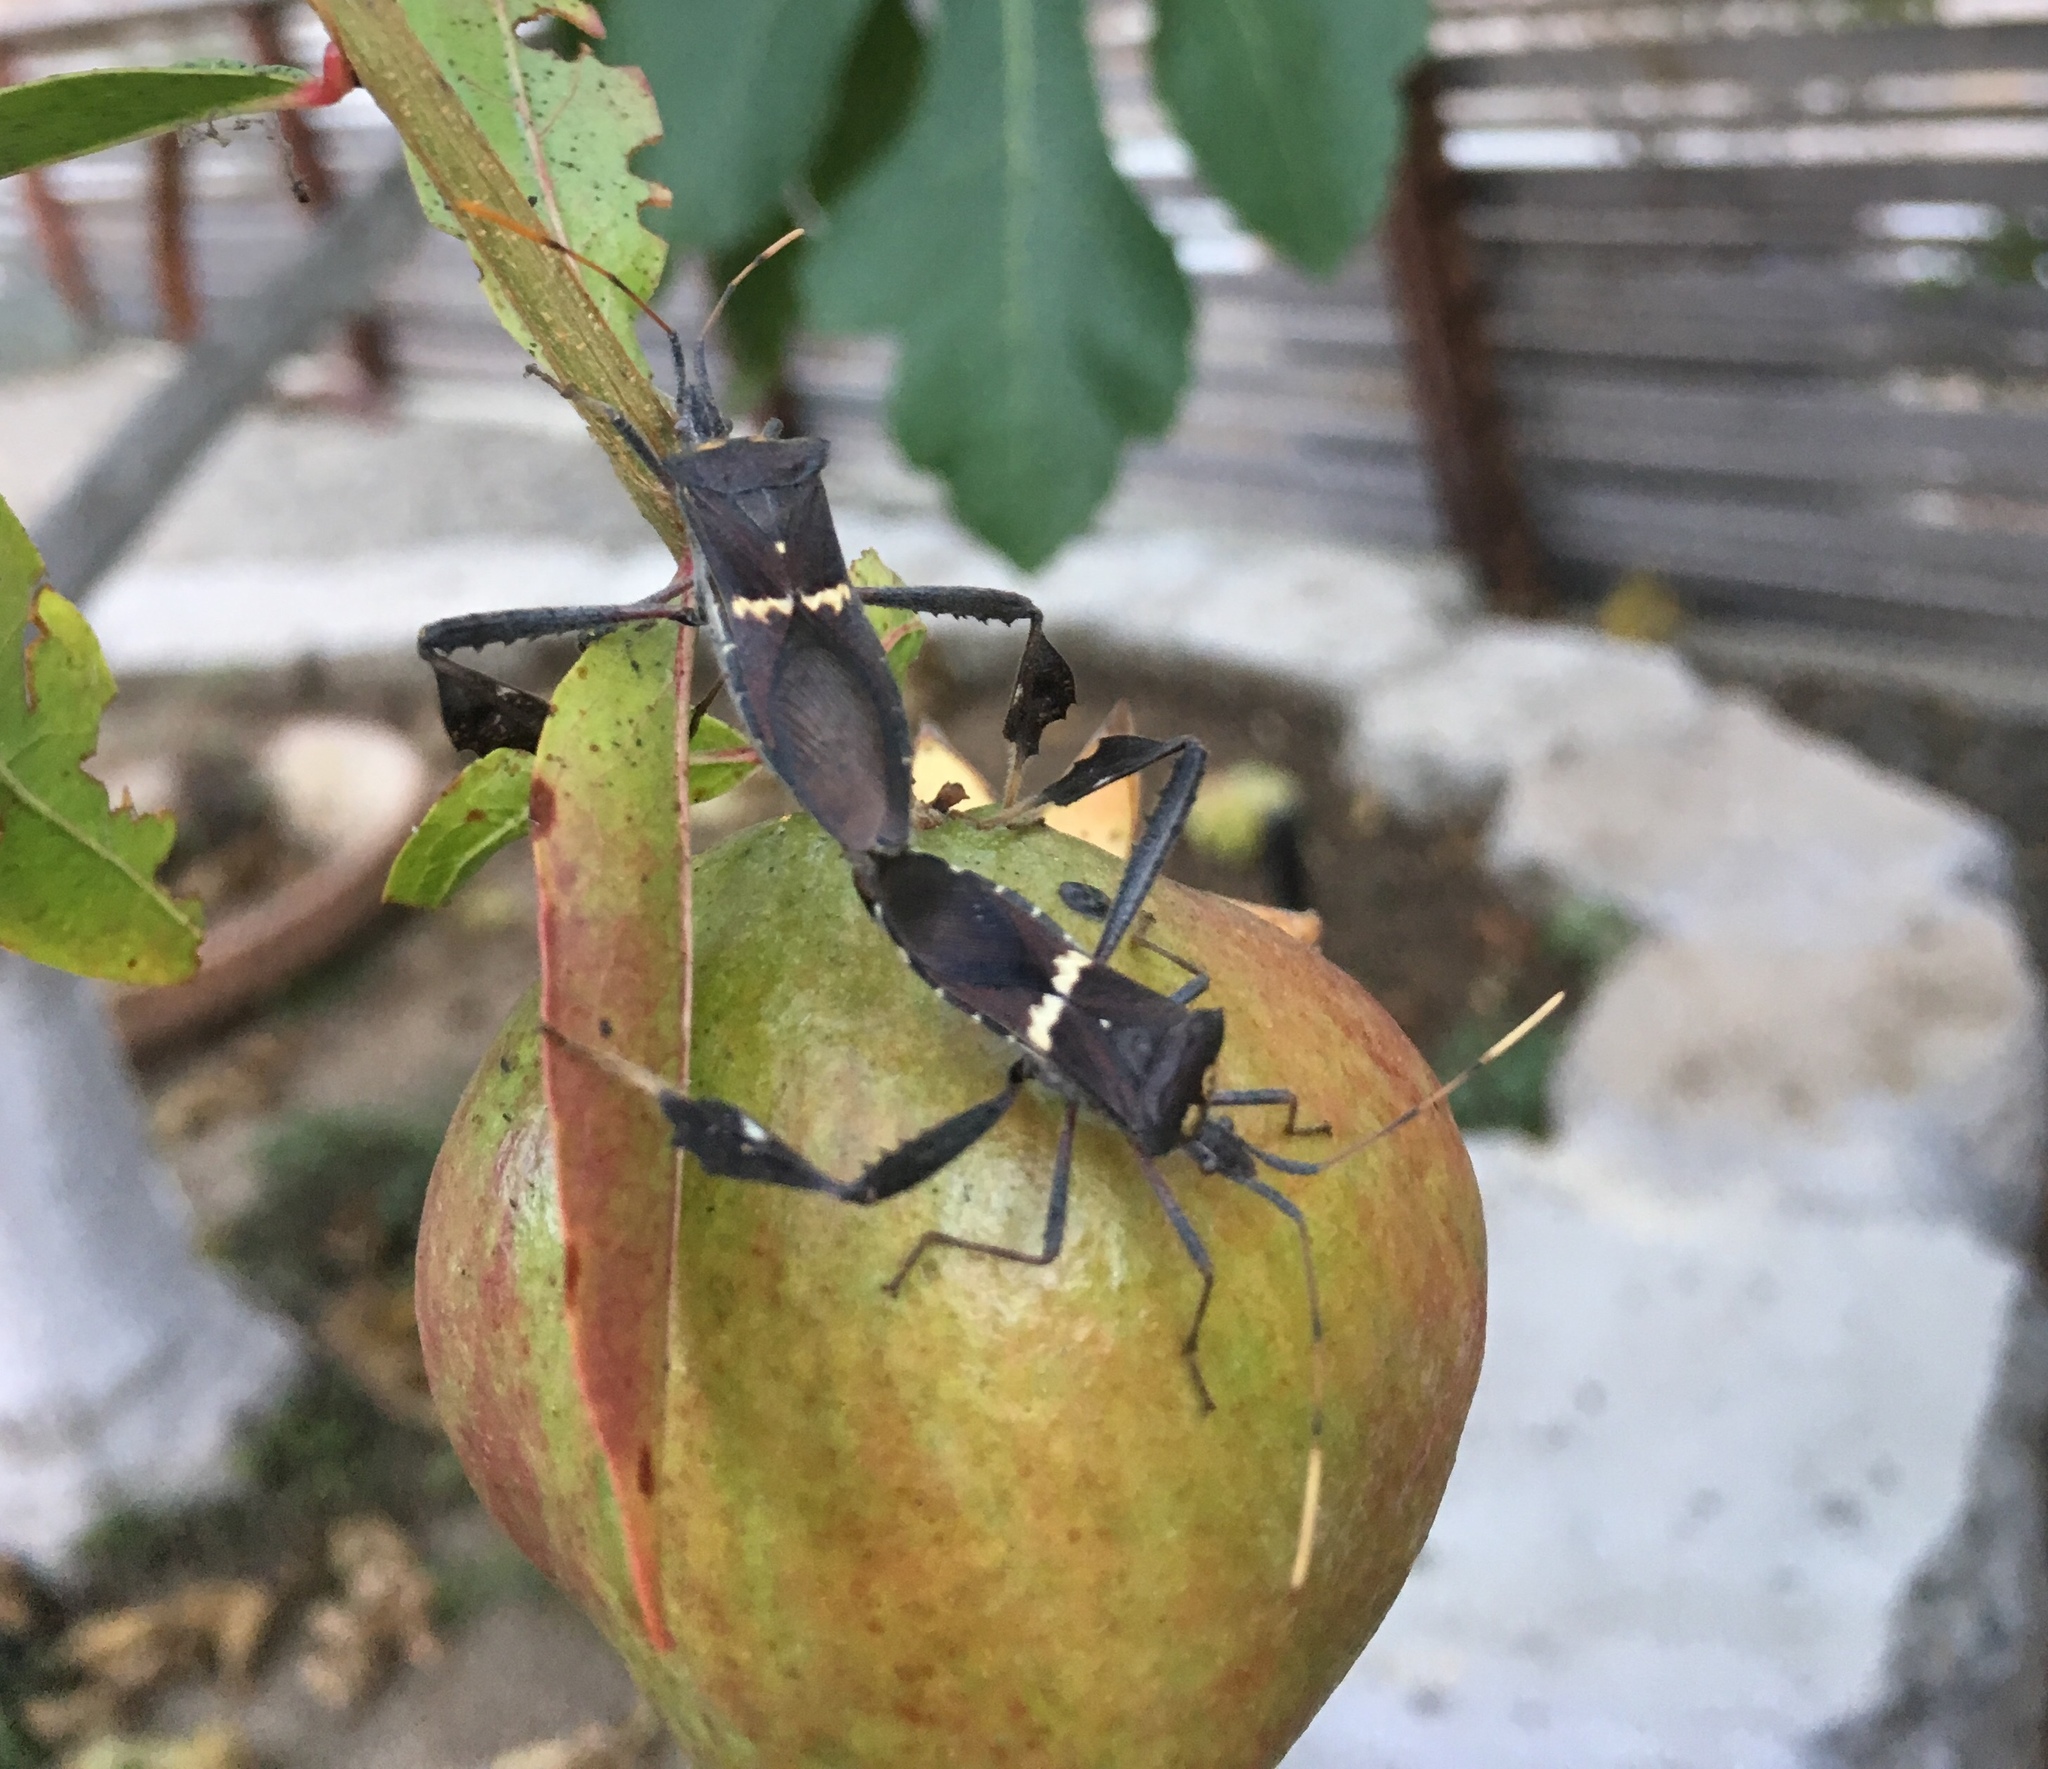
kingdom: Animalia
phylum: Arthropoda
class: Insecta
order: Hemiptera
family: Coreidae
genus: Leptoglossus
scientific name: Leptoglossus zonatus
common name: Large-legged bug
